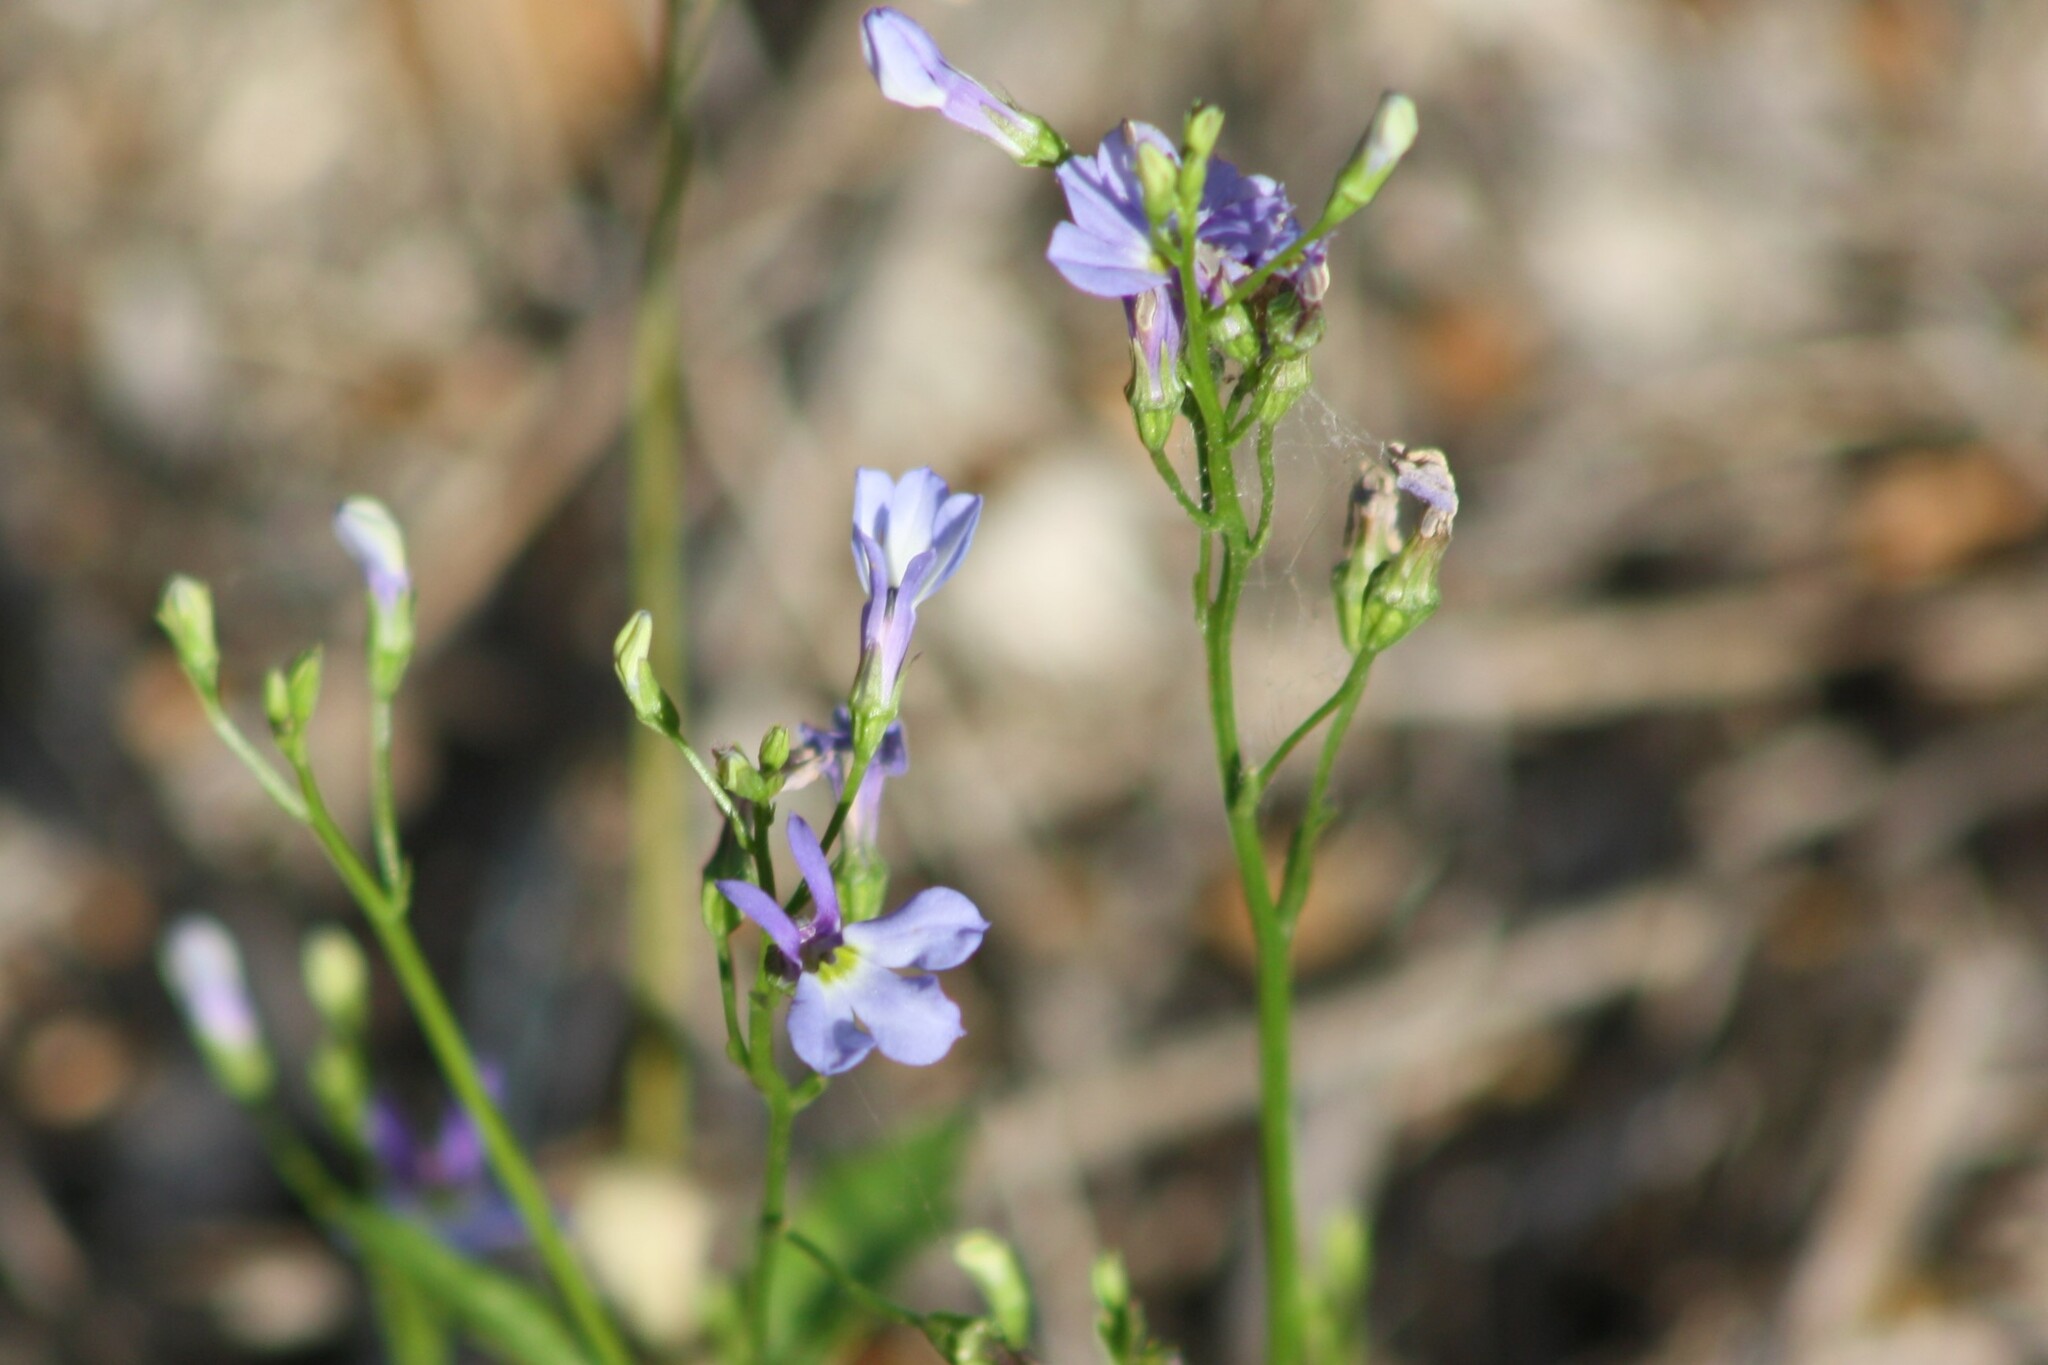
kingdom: Plantae
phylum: Tracheophyta
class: Magnoliopsida
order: Asterales
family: Campanulaceae
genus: Lobelia
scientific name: Lobelia berlandieri
